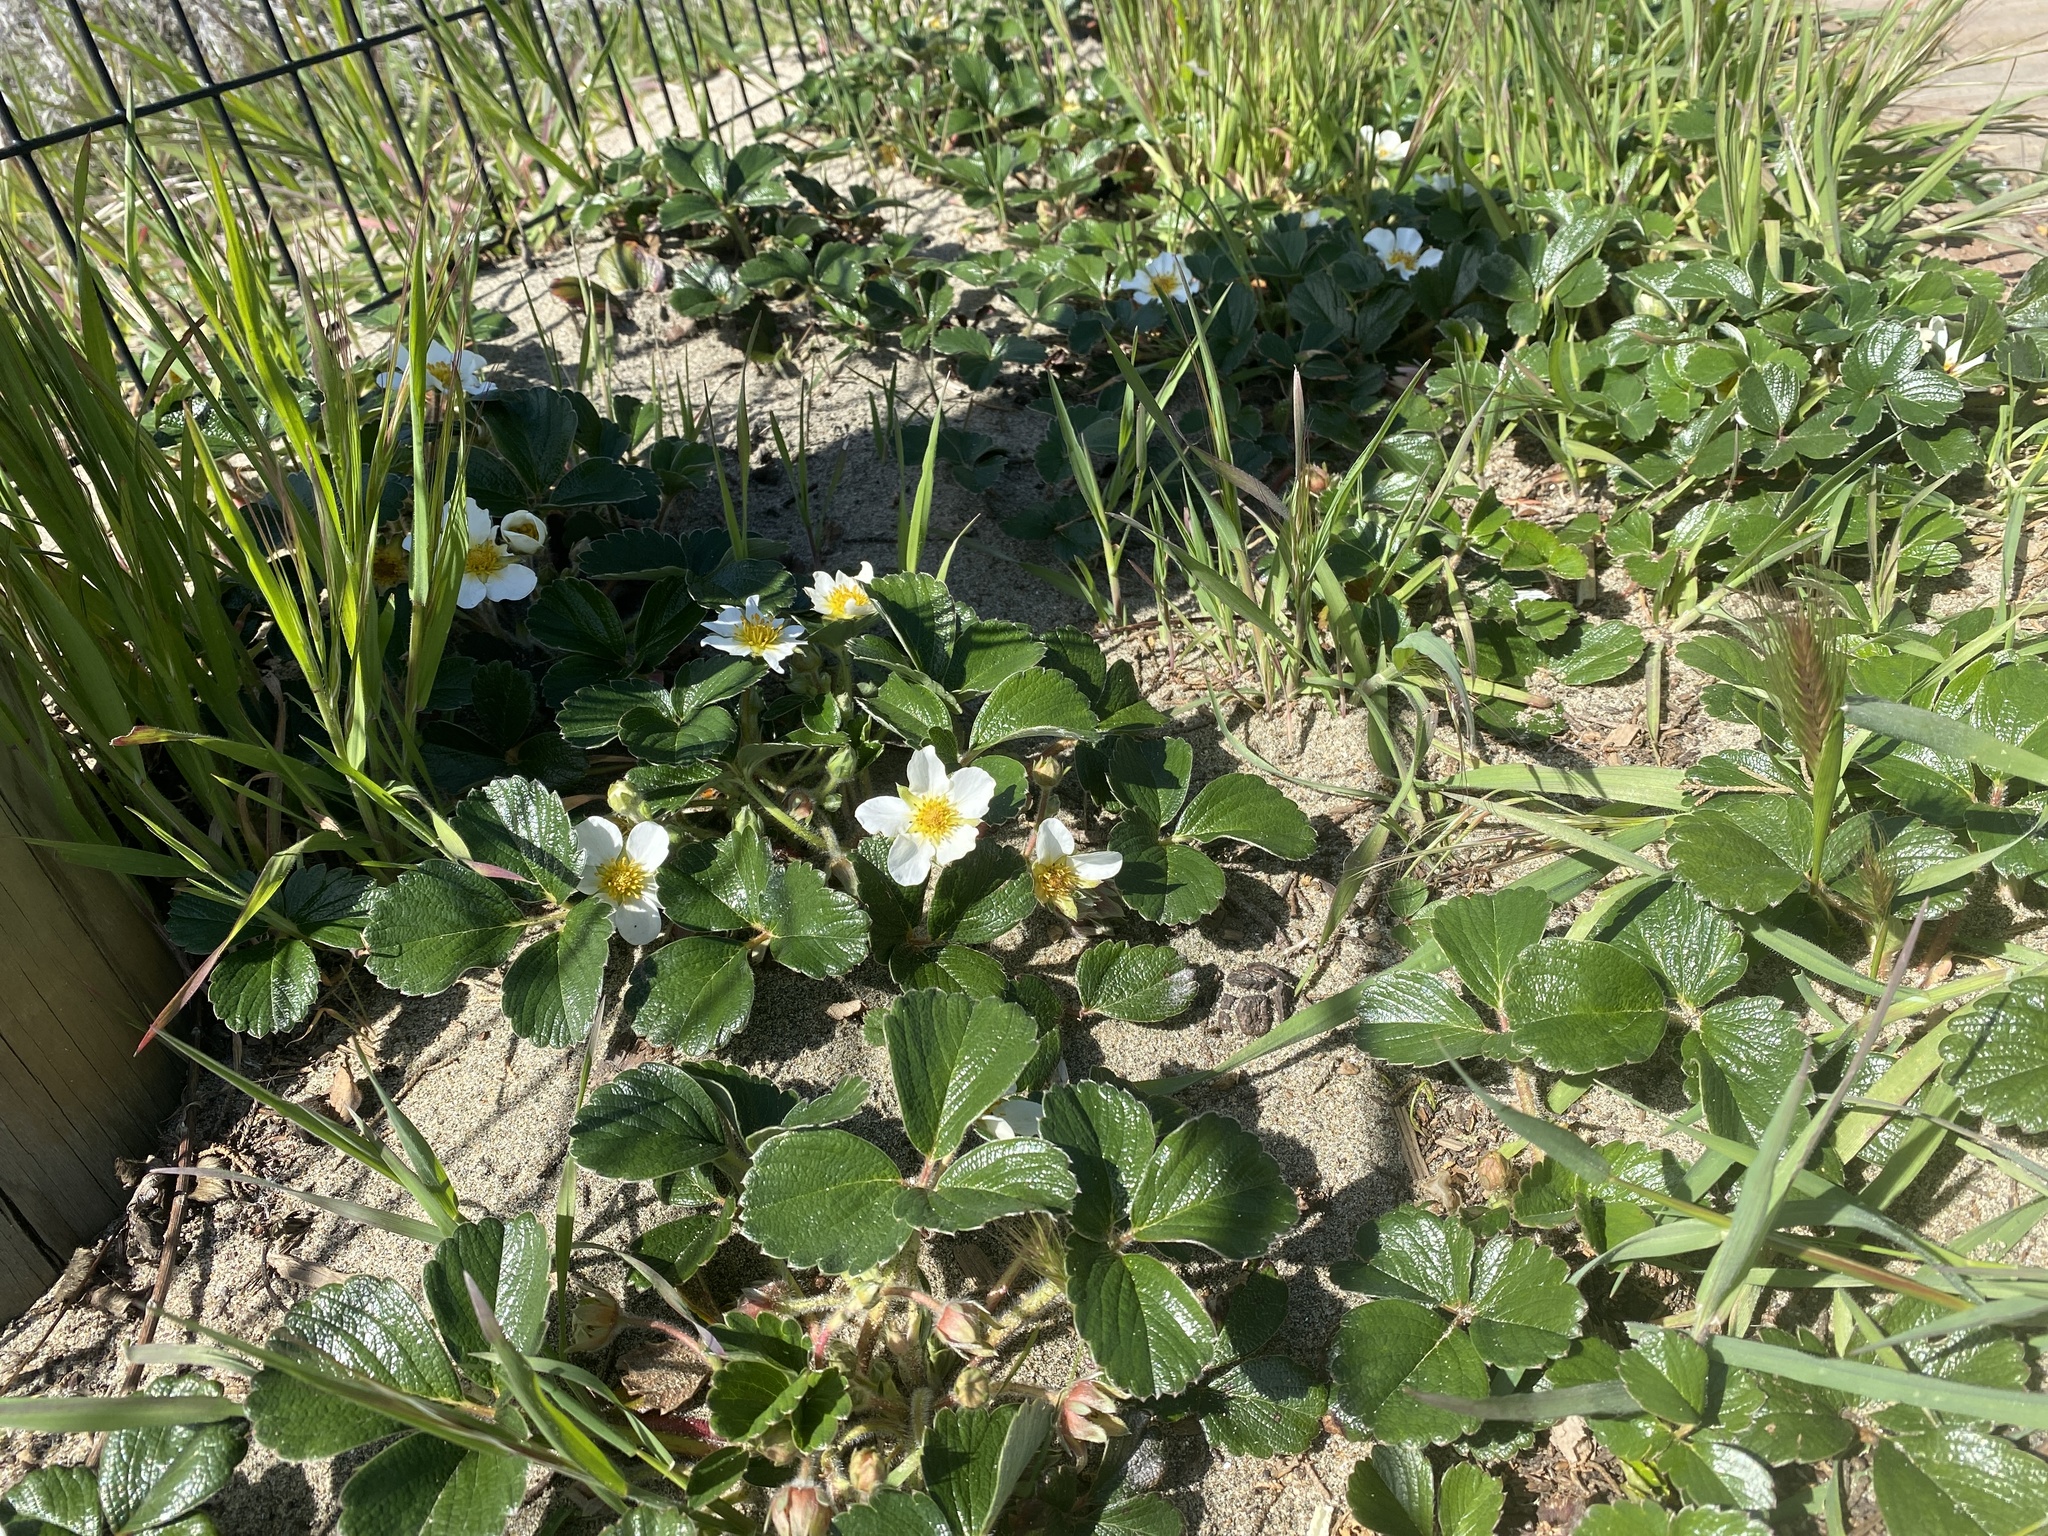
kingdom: Plantae
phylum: Tracheophyta
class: Magnoliopsida
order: Rosales
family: Rosaceae
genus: Fragaria
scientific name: Fragaria chiloensis
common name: Beach strawberry
